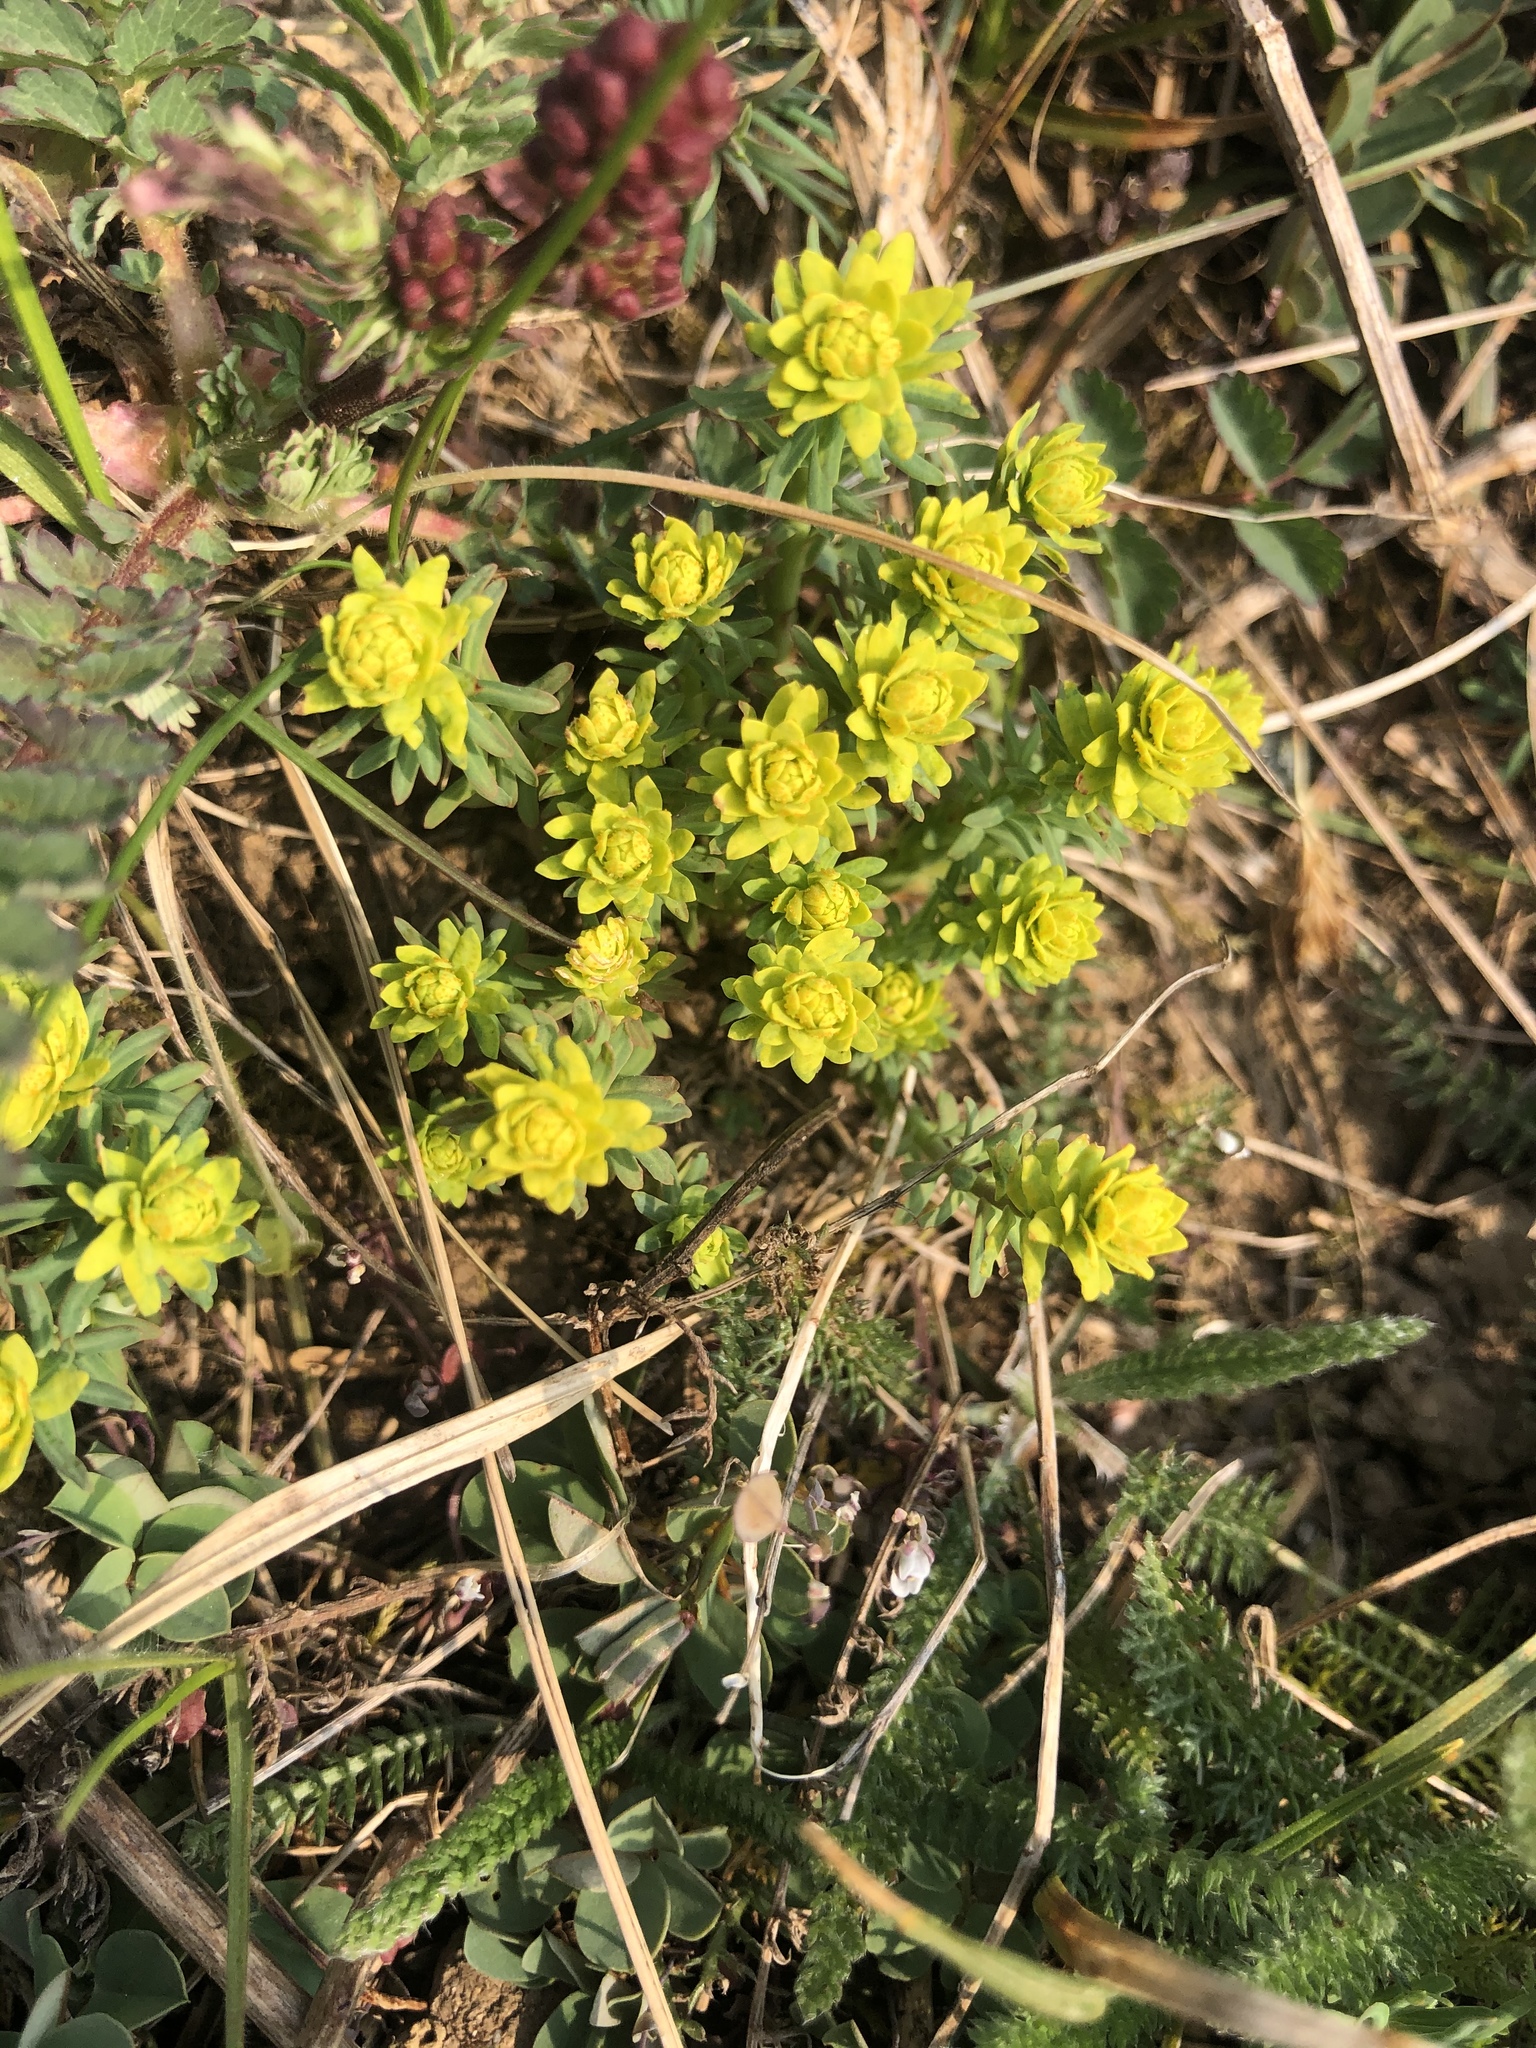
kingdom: Plantae
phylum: Tracheophyta
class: Magnoliopsida
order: Malpighiales
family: Euphorbiaceae
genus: Euphorbia
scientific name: Euphorbia cyparissias
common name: Cypress spurge
